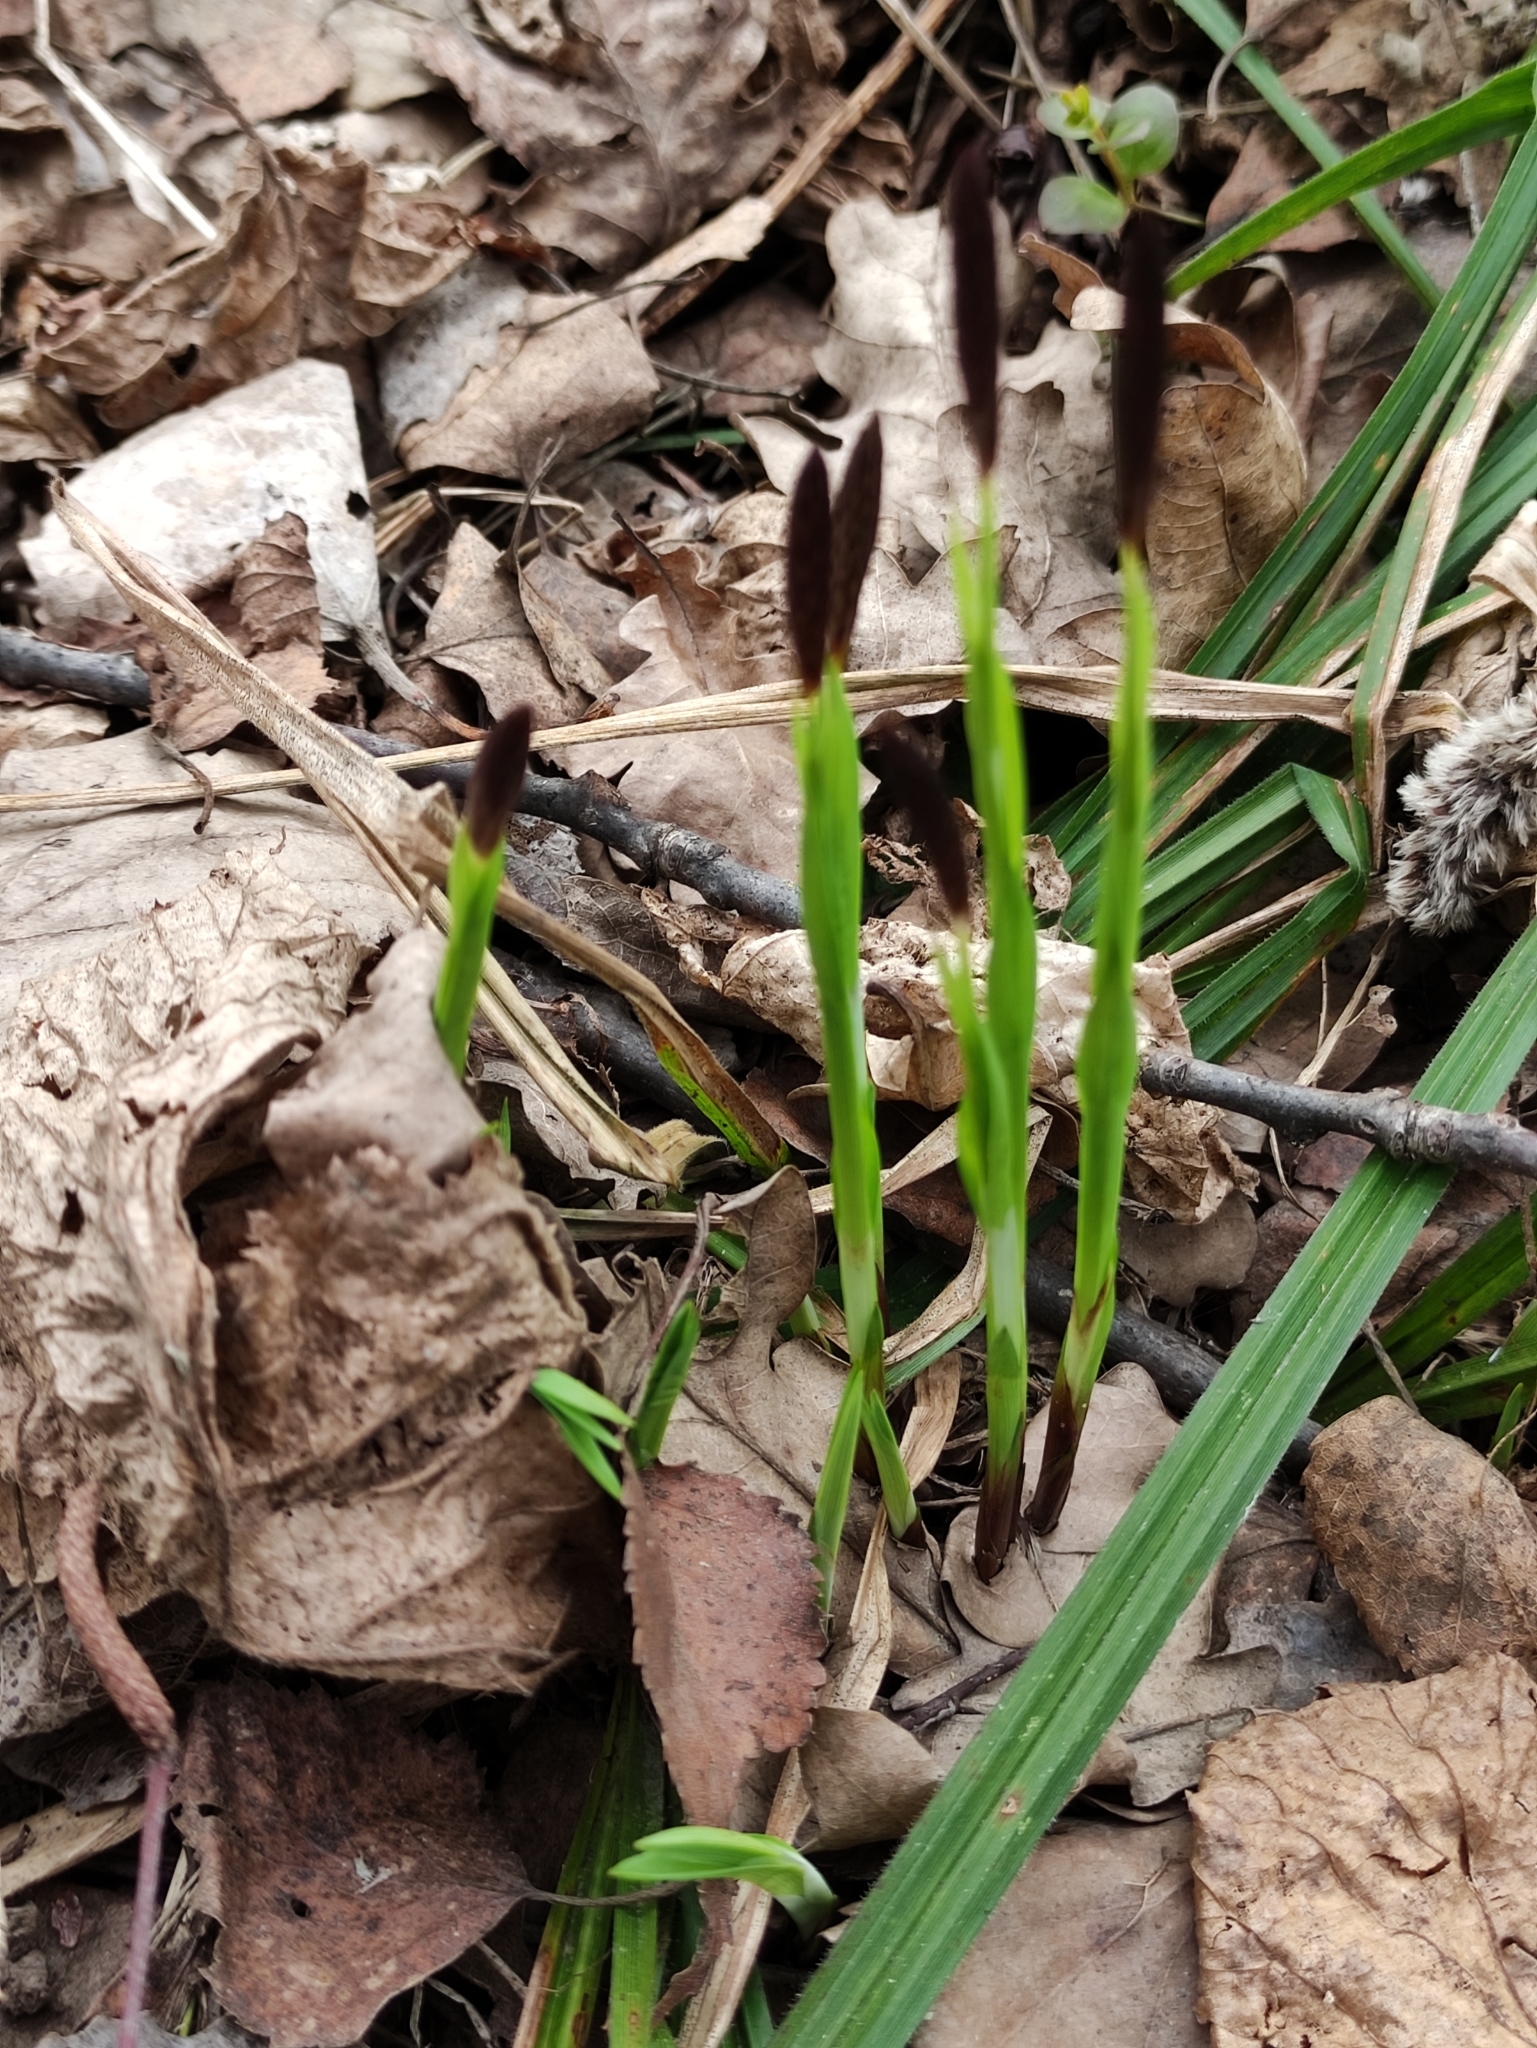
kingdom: Plantae
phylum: Tracheophyta
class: Liliopsida
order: Poales
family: Cyperaceae
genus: Carex
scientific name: Carex pilosa
